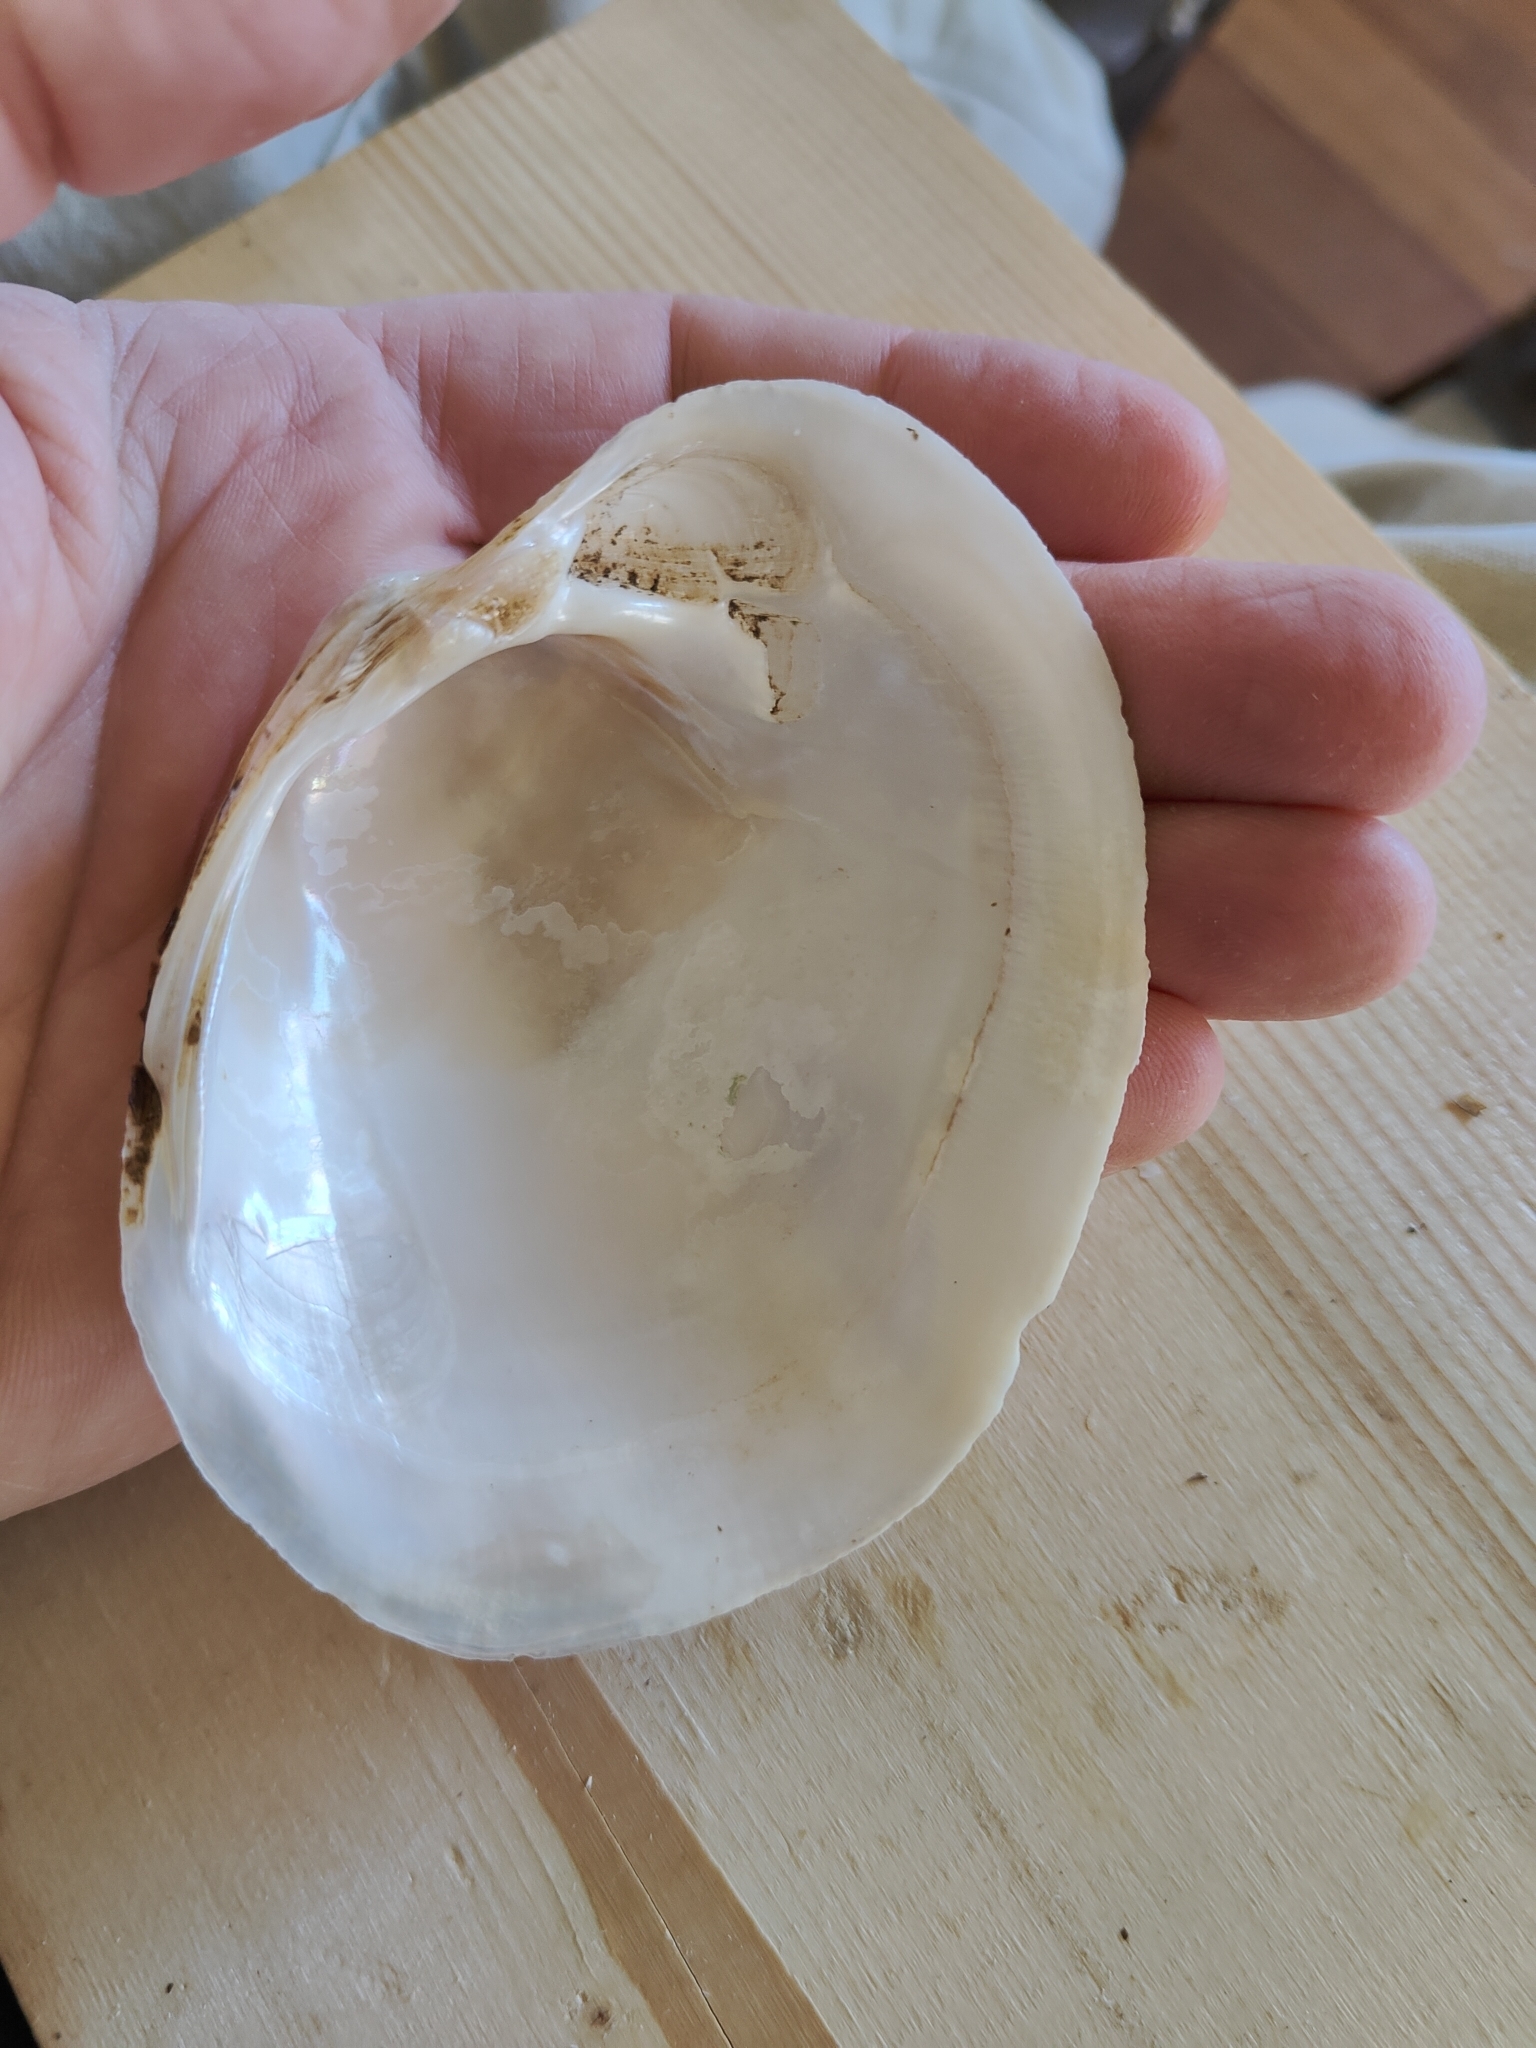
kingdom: Animalia
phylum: Mollusca
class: Bivalvia
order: Unionida
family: Unionidae
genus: Lampsilis
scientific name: Lampsilis cardium
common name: Plain pocketbook
